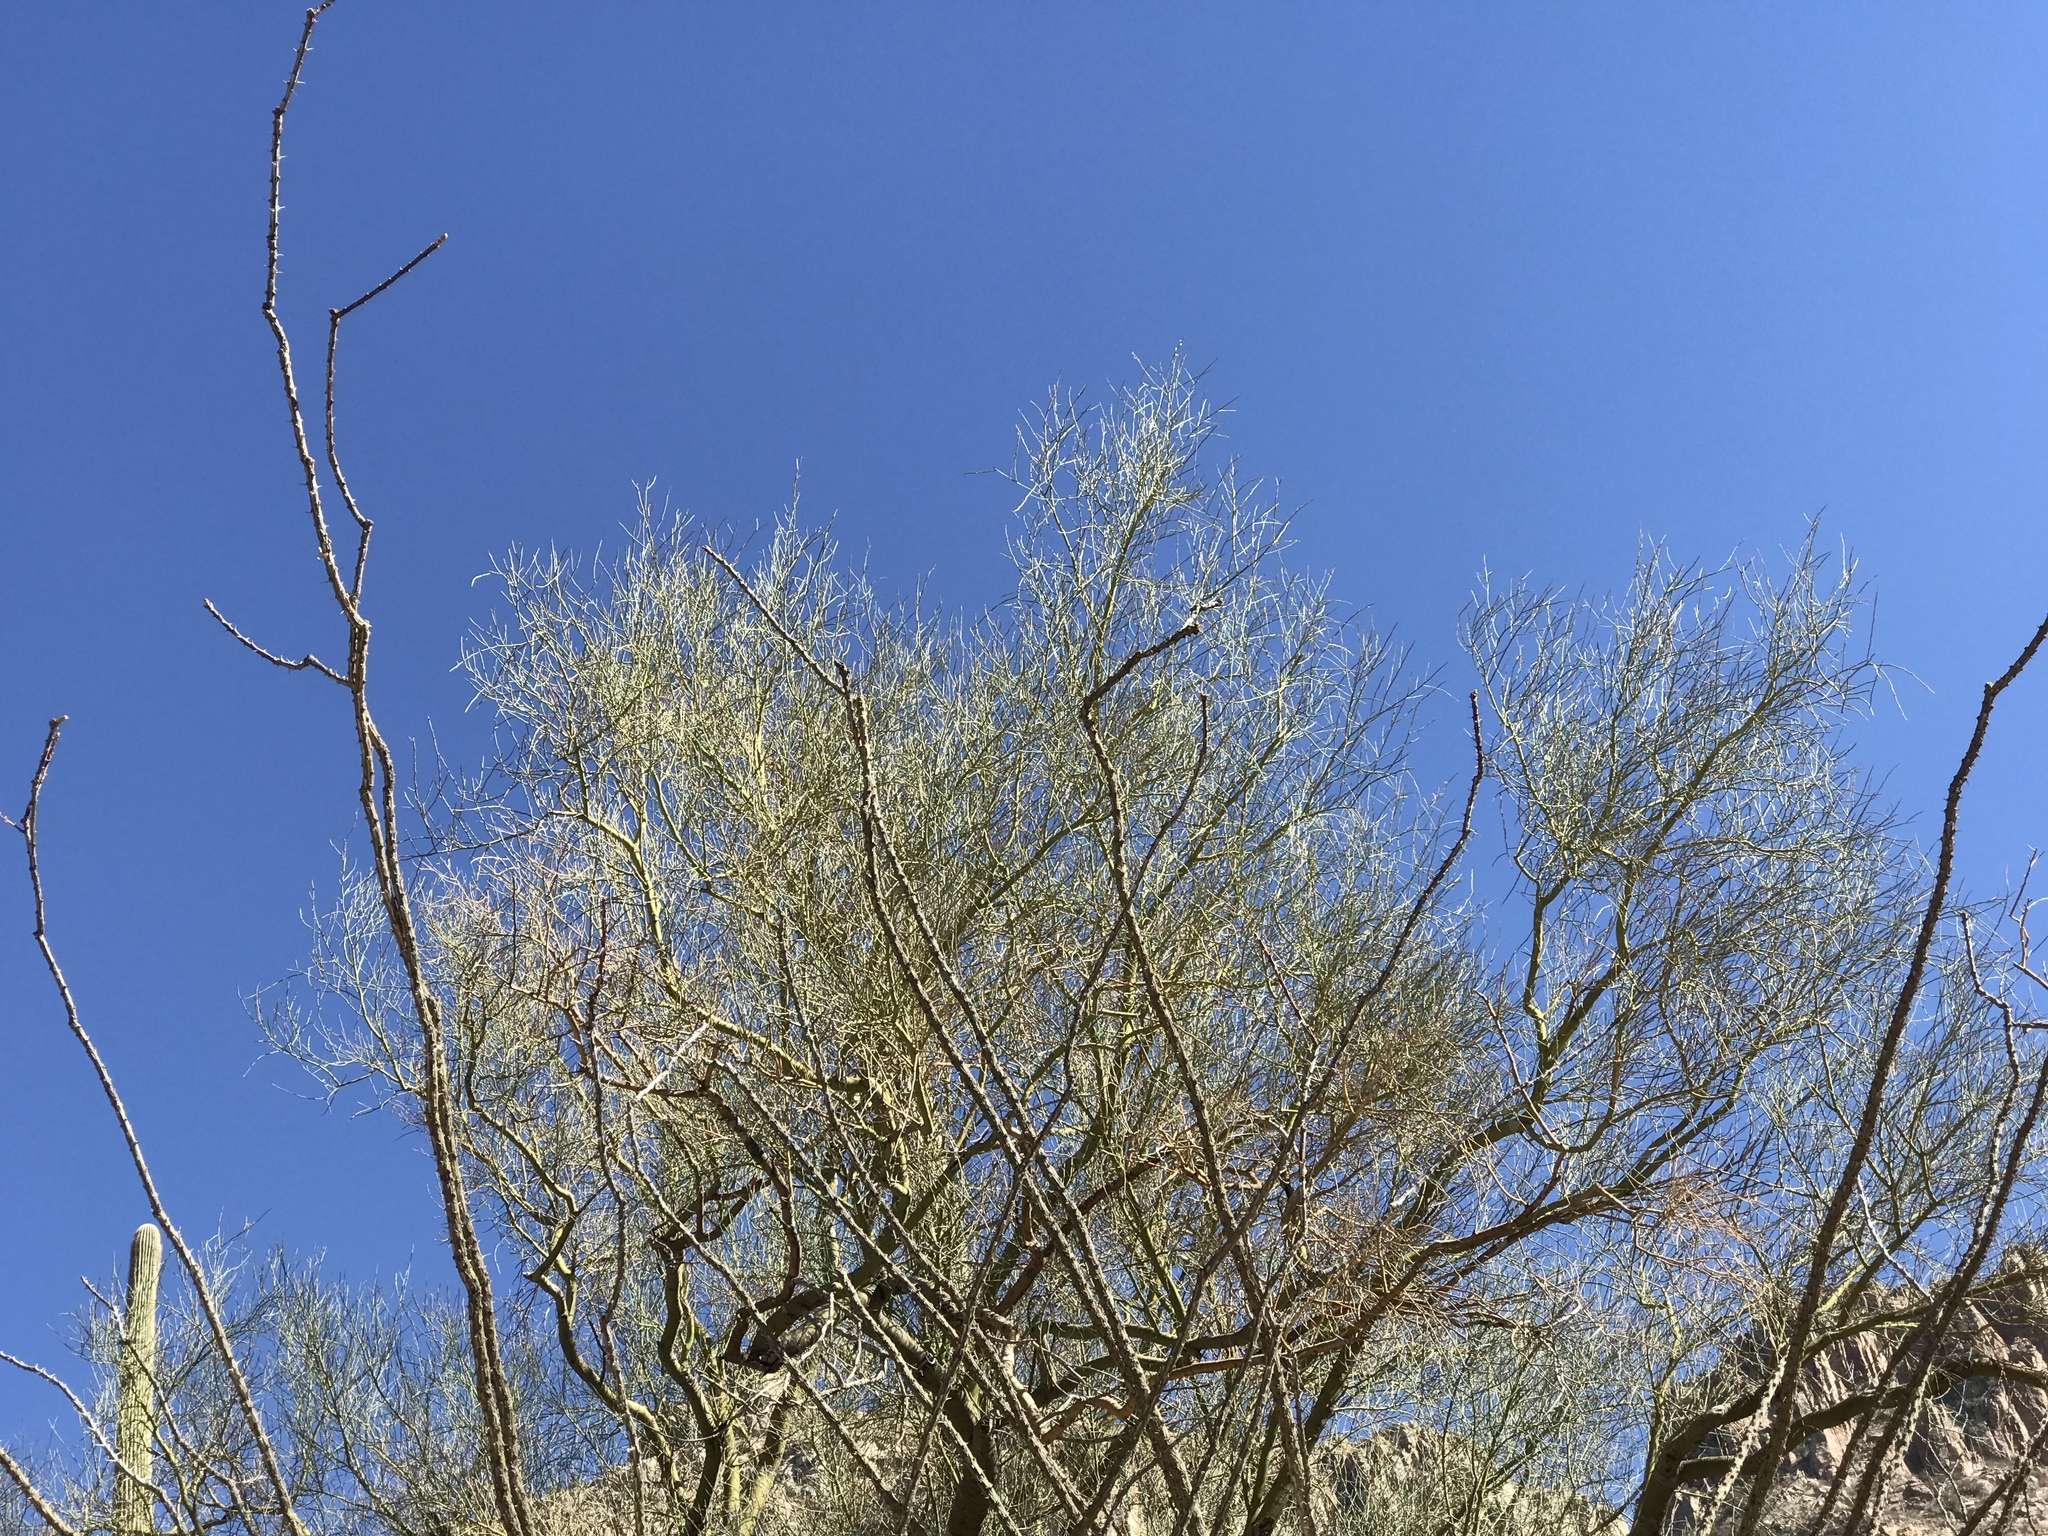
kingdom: Plantae
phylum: Tracheophyta
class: Magnoliopsida
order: Fabales
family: Fabaceae
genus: Parkinsonia
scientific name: Parkinsonia microphylla
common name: Yellow paloverde
